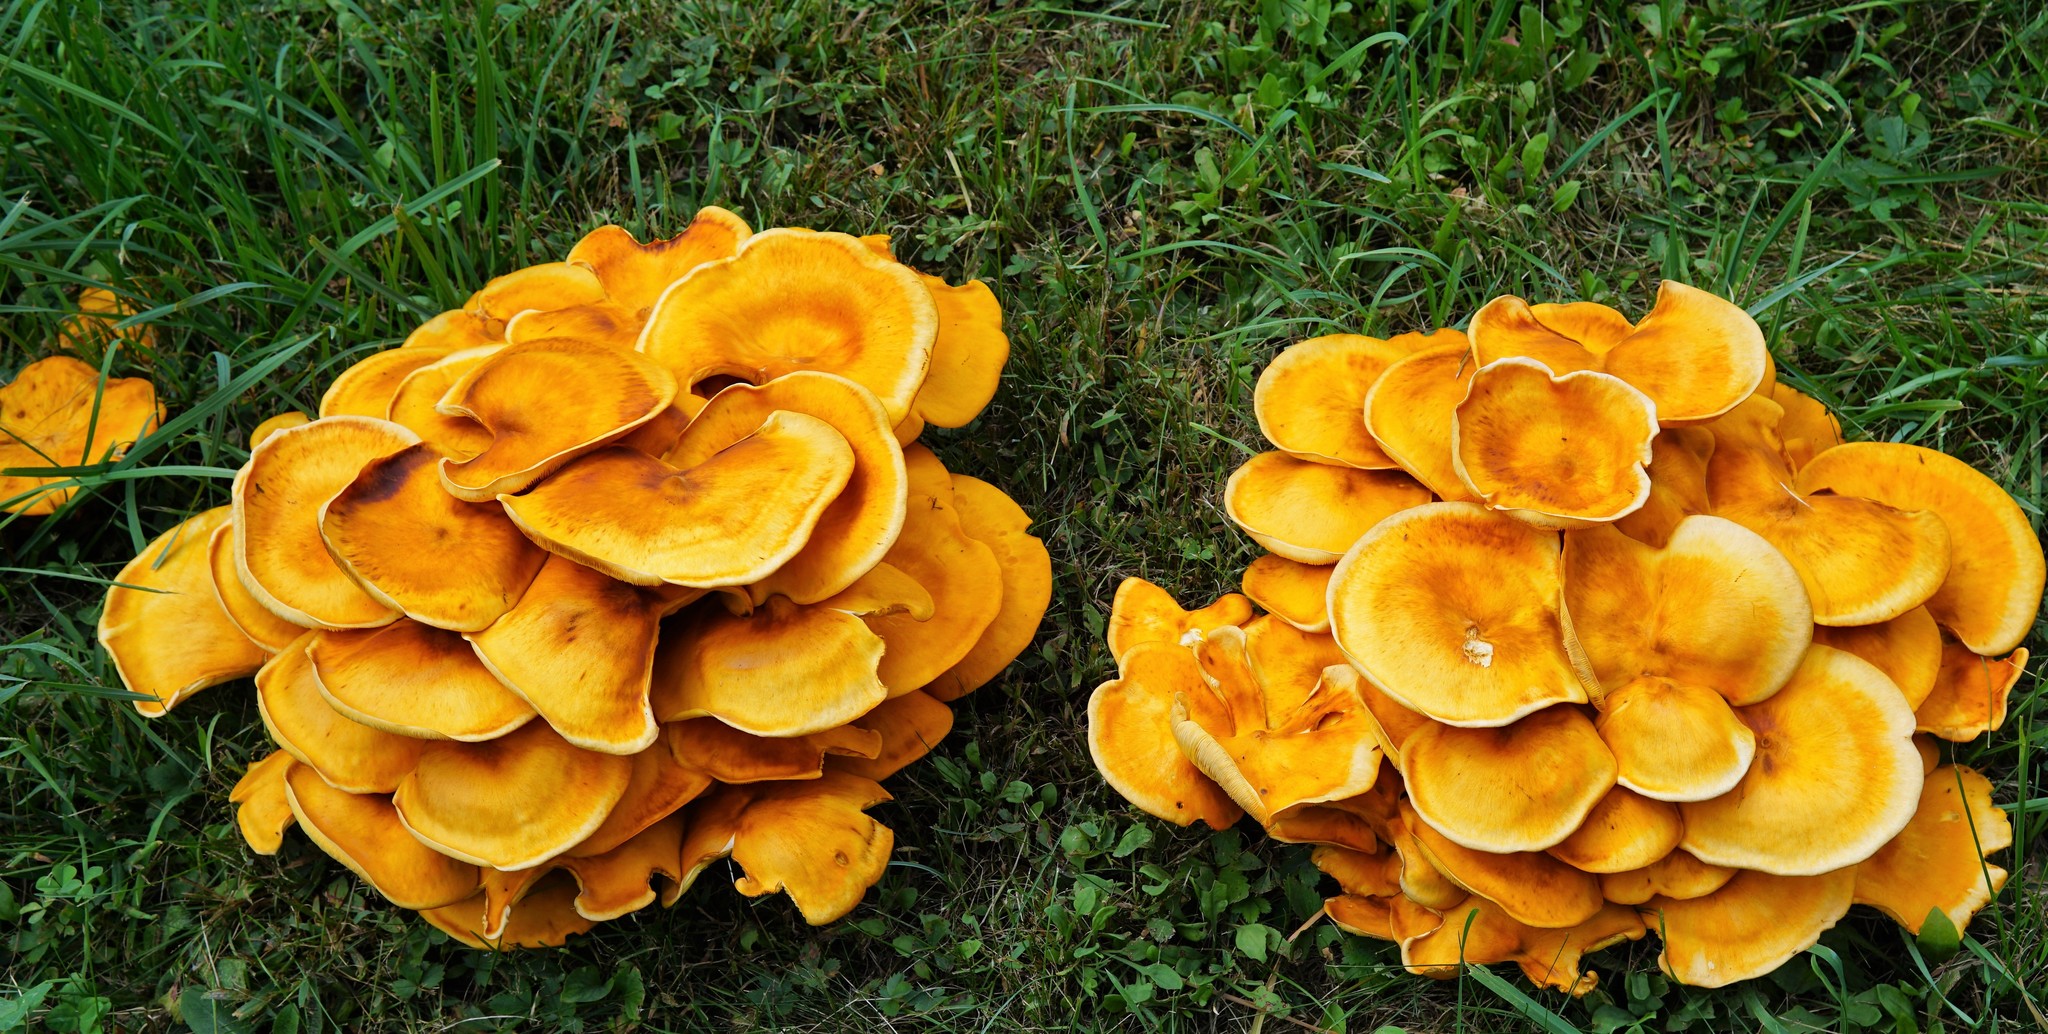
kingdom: Fungi
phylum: Basidiomycota
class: Agaricomycetes
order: Agaricales
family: Omphalotaceae
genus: Omphalotus
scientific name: Omphalotus illudens
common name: Jack o lantern
